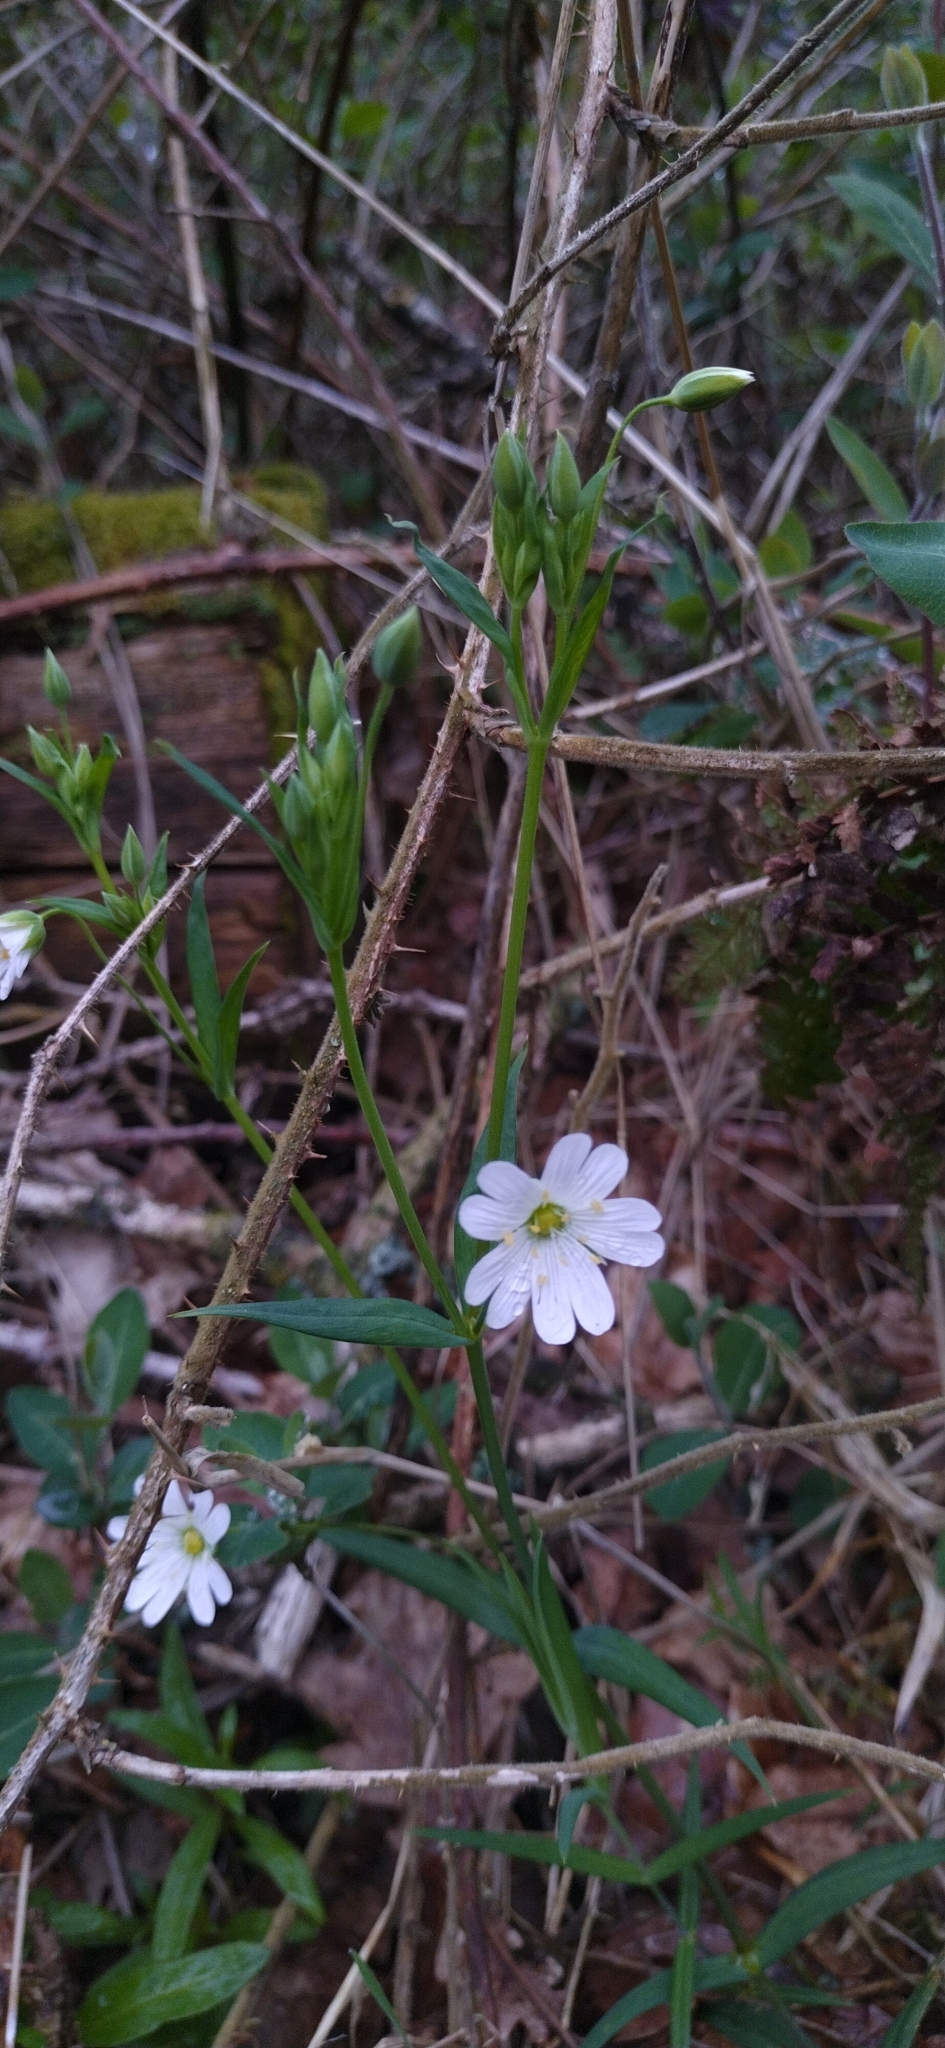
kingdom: Plantae
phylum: Tracheophyta
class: Magnoliopsida
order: Caryophyllales
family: Caryophyllaceae
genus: Rabelera
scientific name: Rabelera holostea
